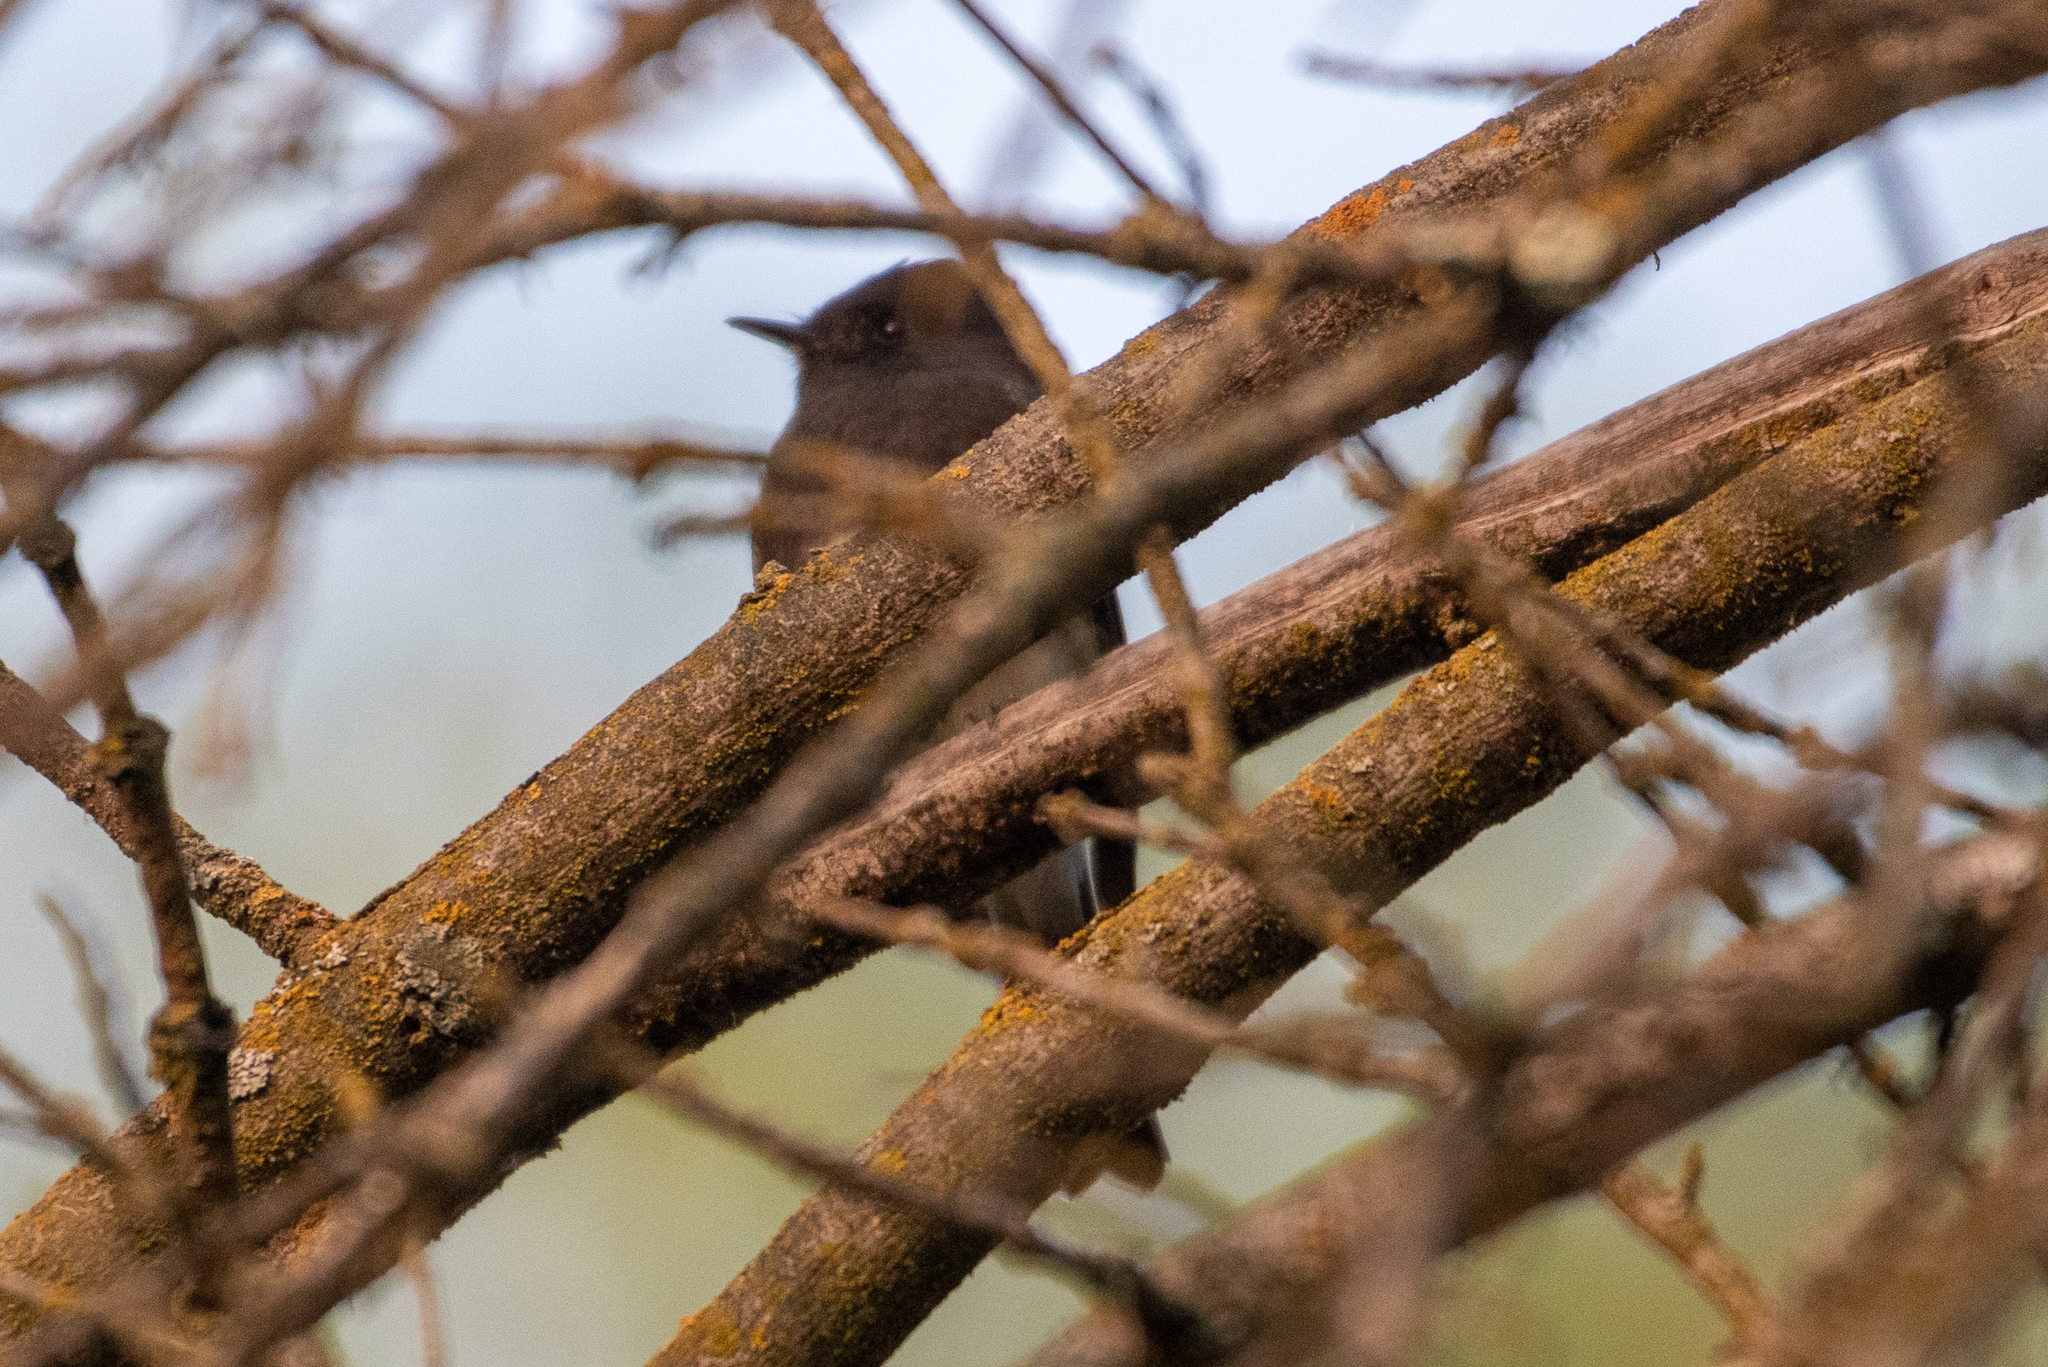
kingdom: Animalia
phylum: Chordata
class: Aves
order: Passeriformes
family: Tyrannidae
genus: Sayornis
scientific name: Sayornis nigricans
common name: Black phoebe
